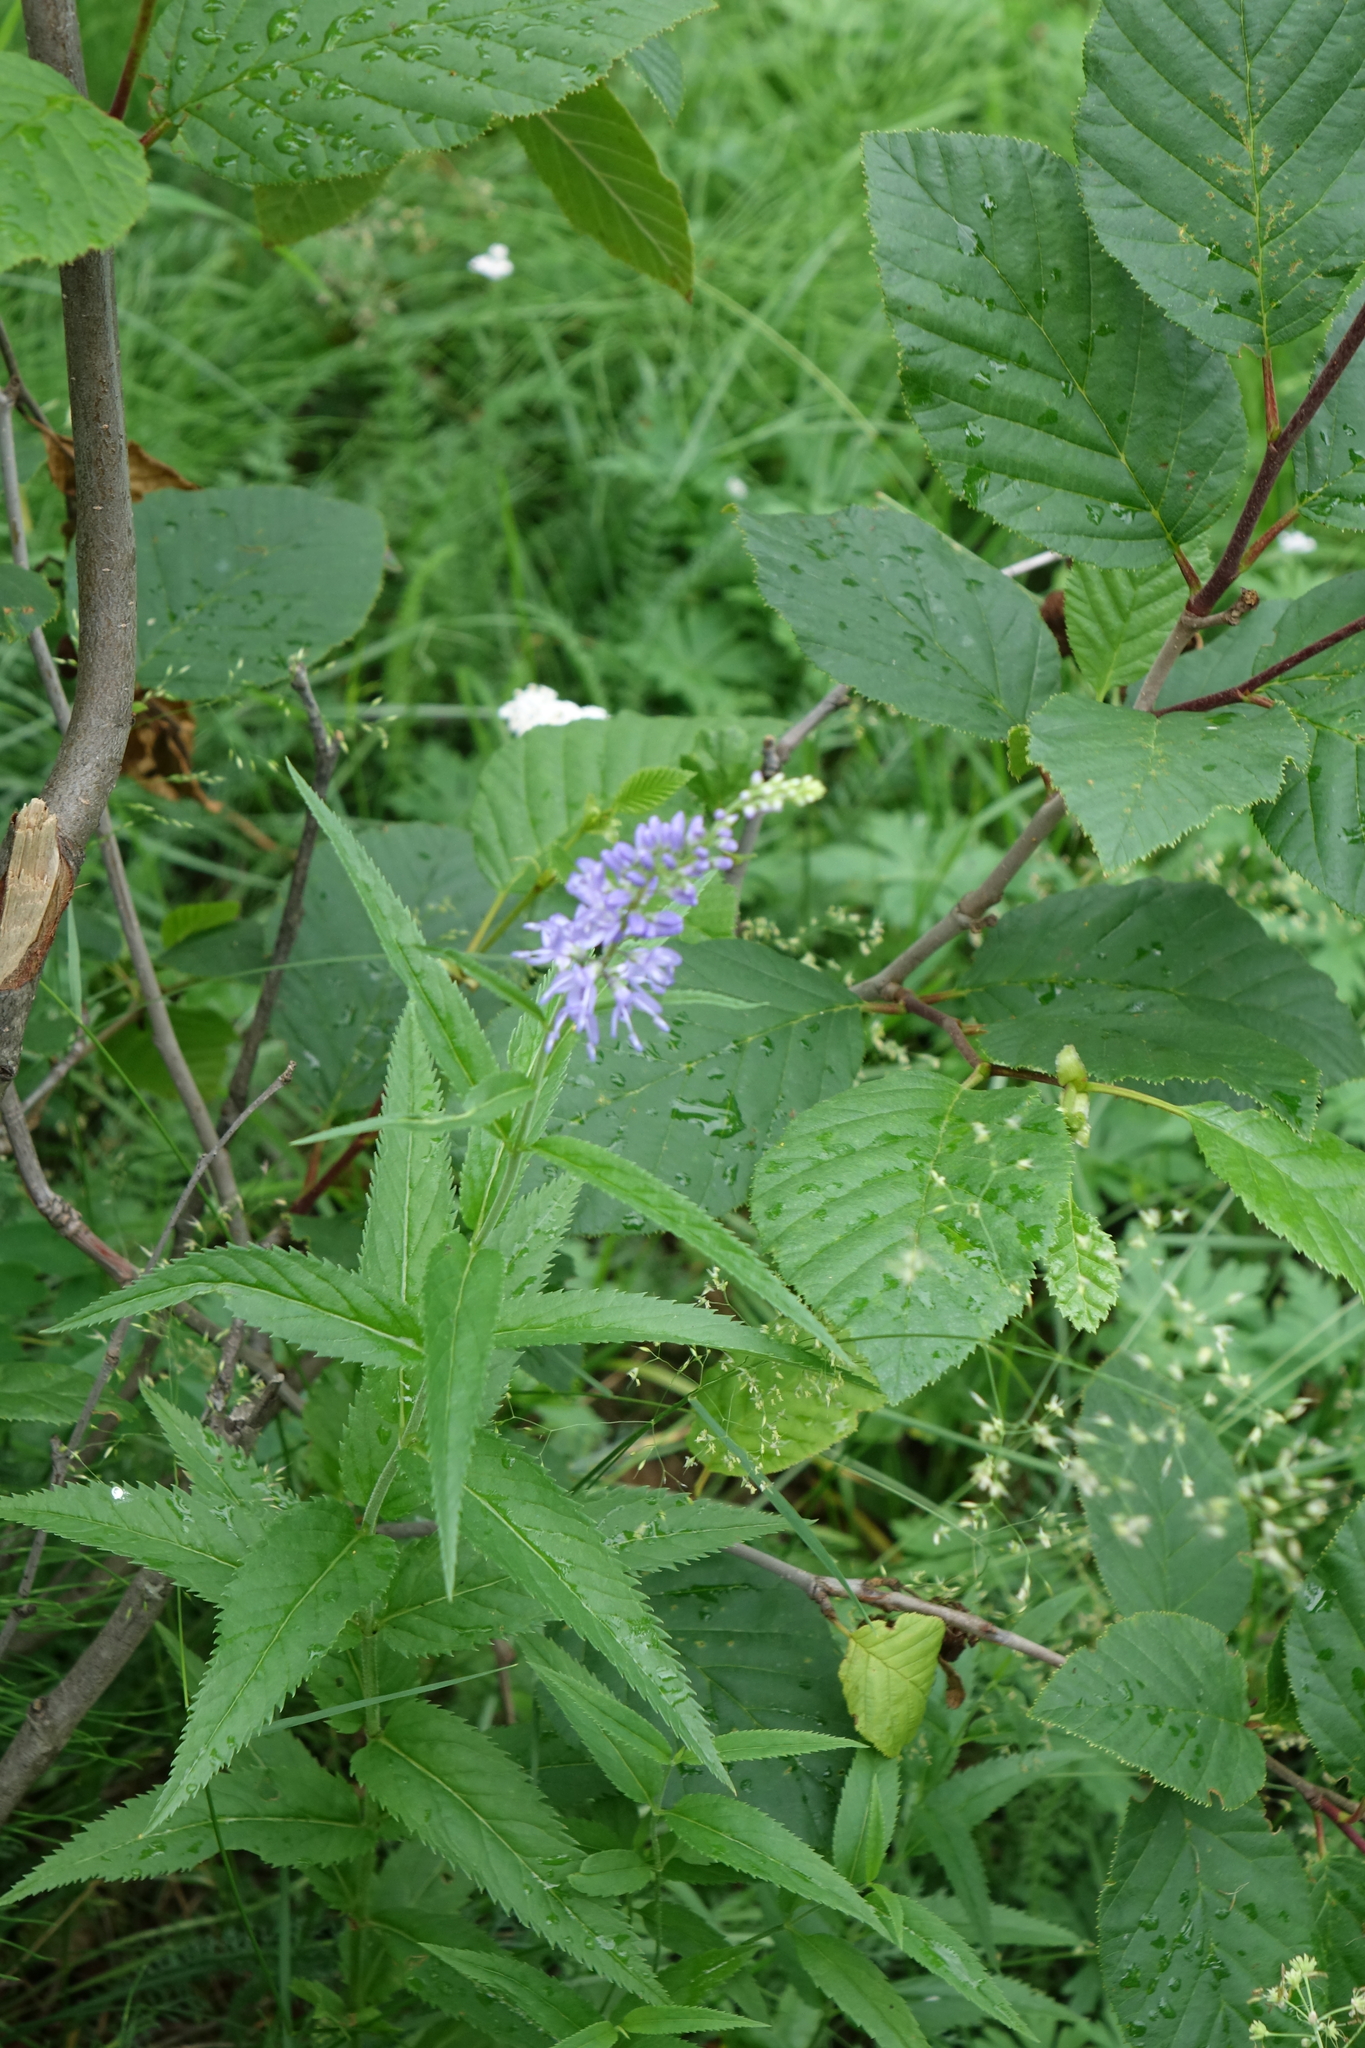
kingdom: Plantae
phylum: Tracheophyta
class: Magnoliopsida
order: Lamiales
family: Plantaginaceae
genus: Veronica
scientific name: Veronica longifolia
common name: Garden speedwell
